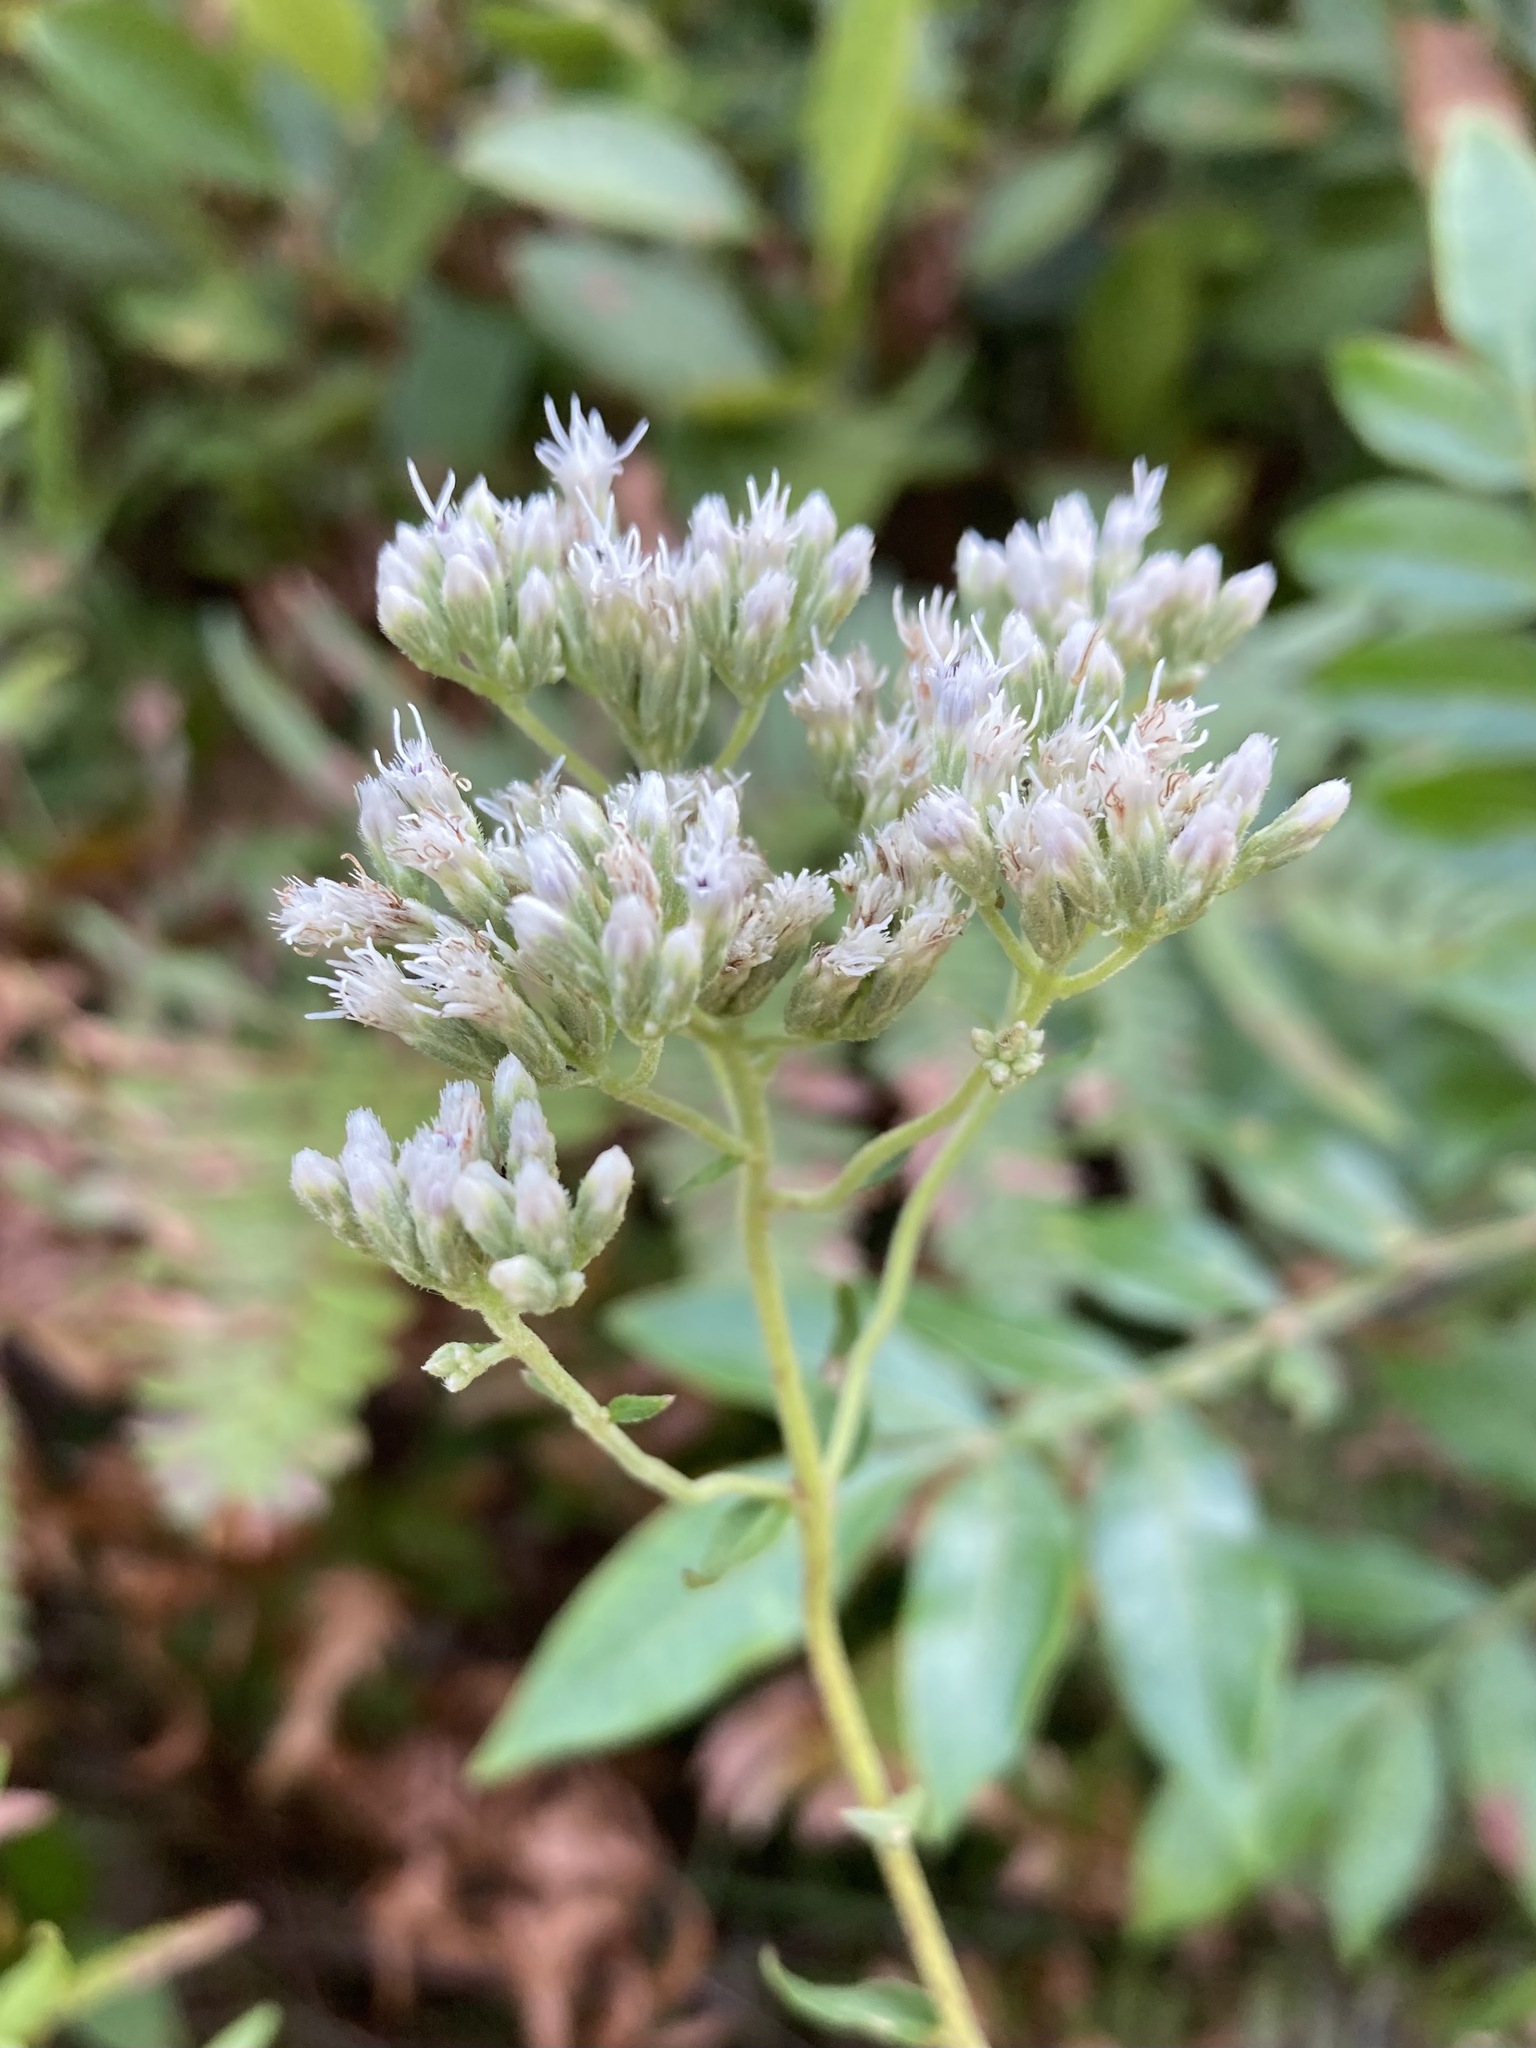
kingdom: Plantae
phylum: Tracheophyta
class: Magnoliopsida
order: Asterales
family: Asteraceae
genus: Eupatorium
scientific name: Eupatorium pilosum
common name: Rough boneset
